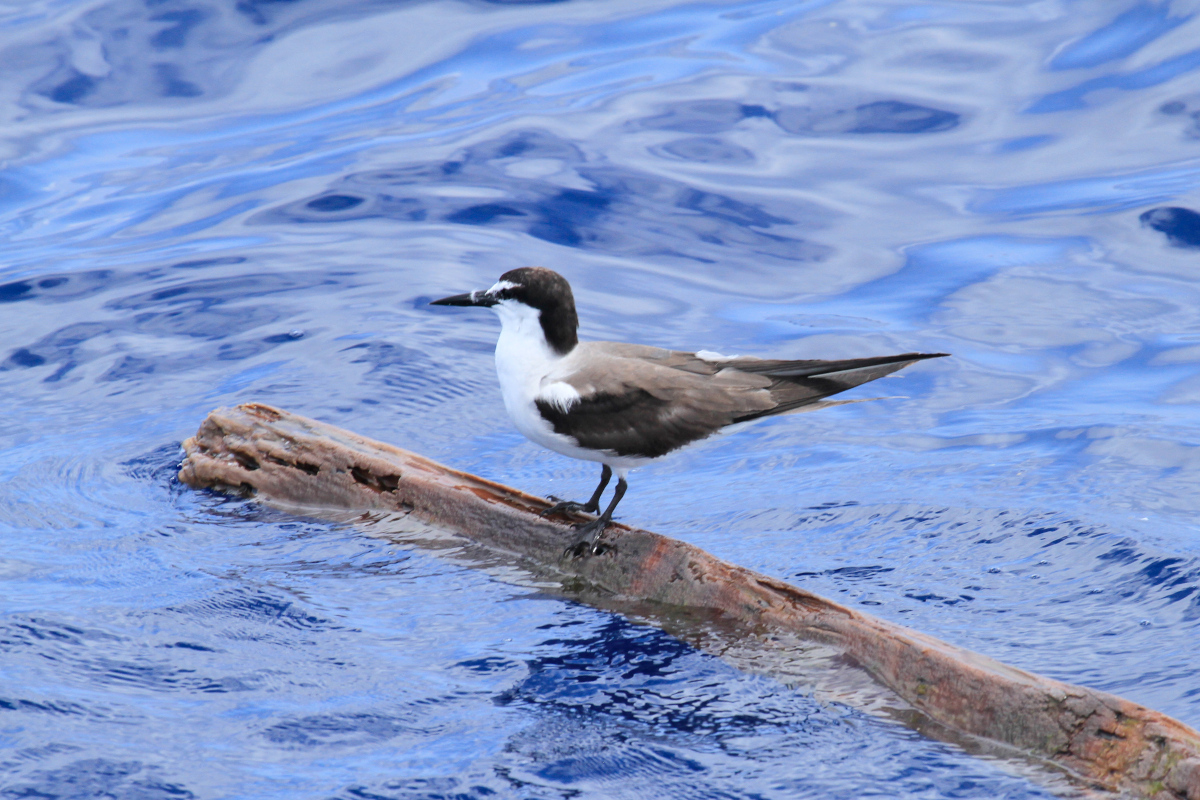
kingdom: Animalia
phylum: Chordata
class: Aves
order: Charadriiformes
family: Laridae
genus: Onychoprion
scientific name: Onychoprion anaethetus
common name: Bridled tern
